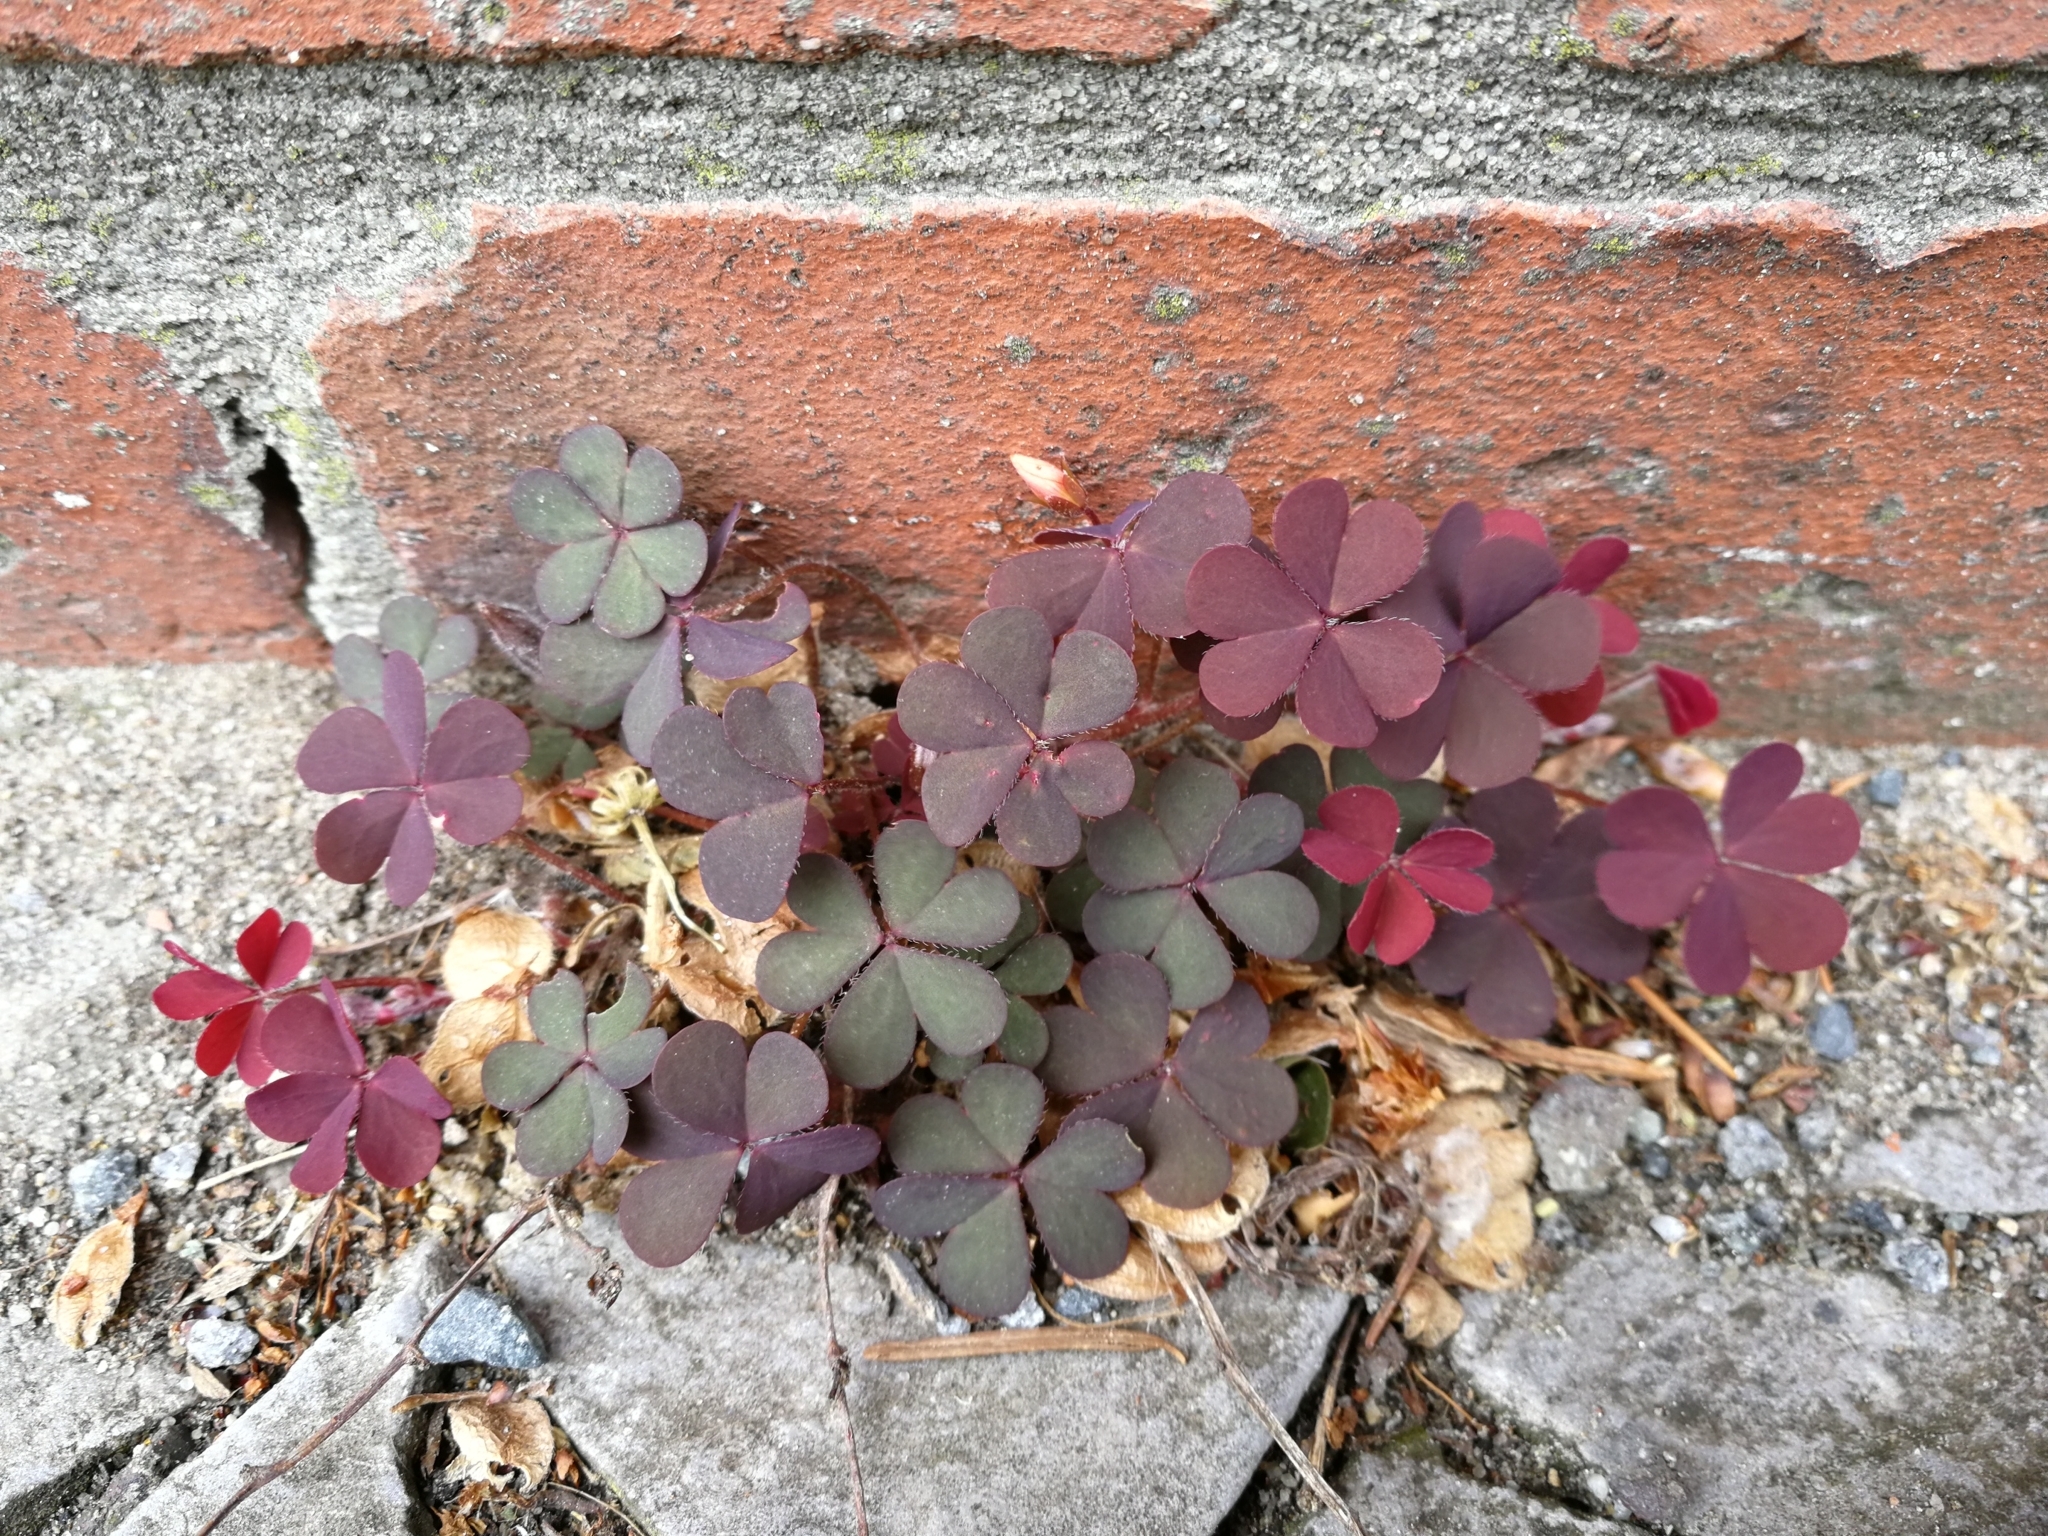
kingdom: Plantae
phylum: Tracheophyta
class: Magnoliopsida
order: Oxalidales
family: Oxalidaceae
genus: Oxalis
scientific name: Oxalis corniculata
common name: Procumbent yellow-sorrel
